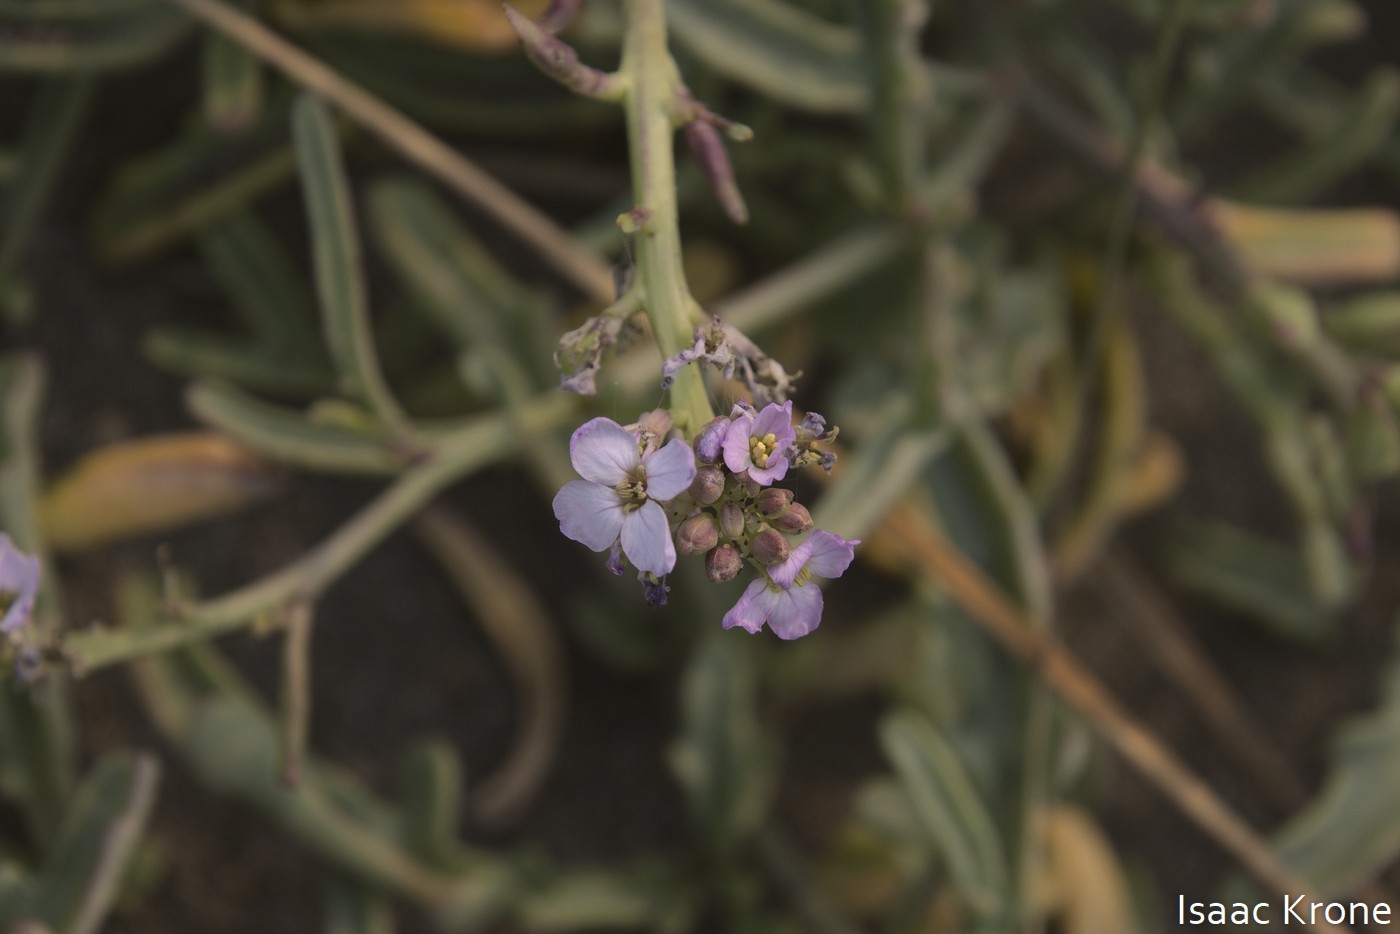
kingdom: Plantae
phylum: Tracheophyta
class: Magnoliopsida
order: Brassicales
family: Brassicaceae
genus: Cakile
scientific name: Cakile maritima
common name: Sea rocket
